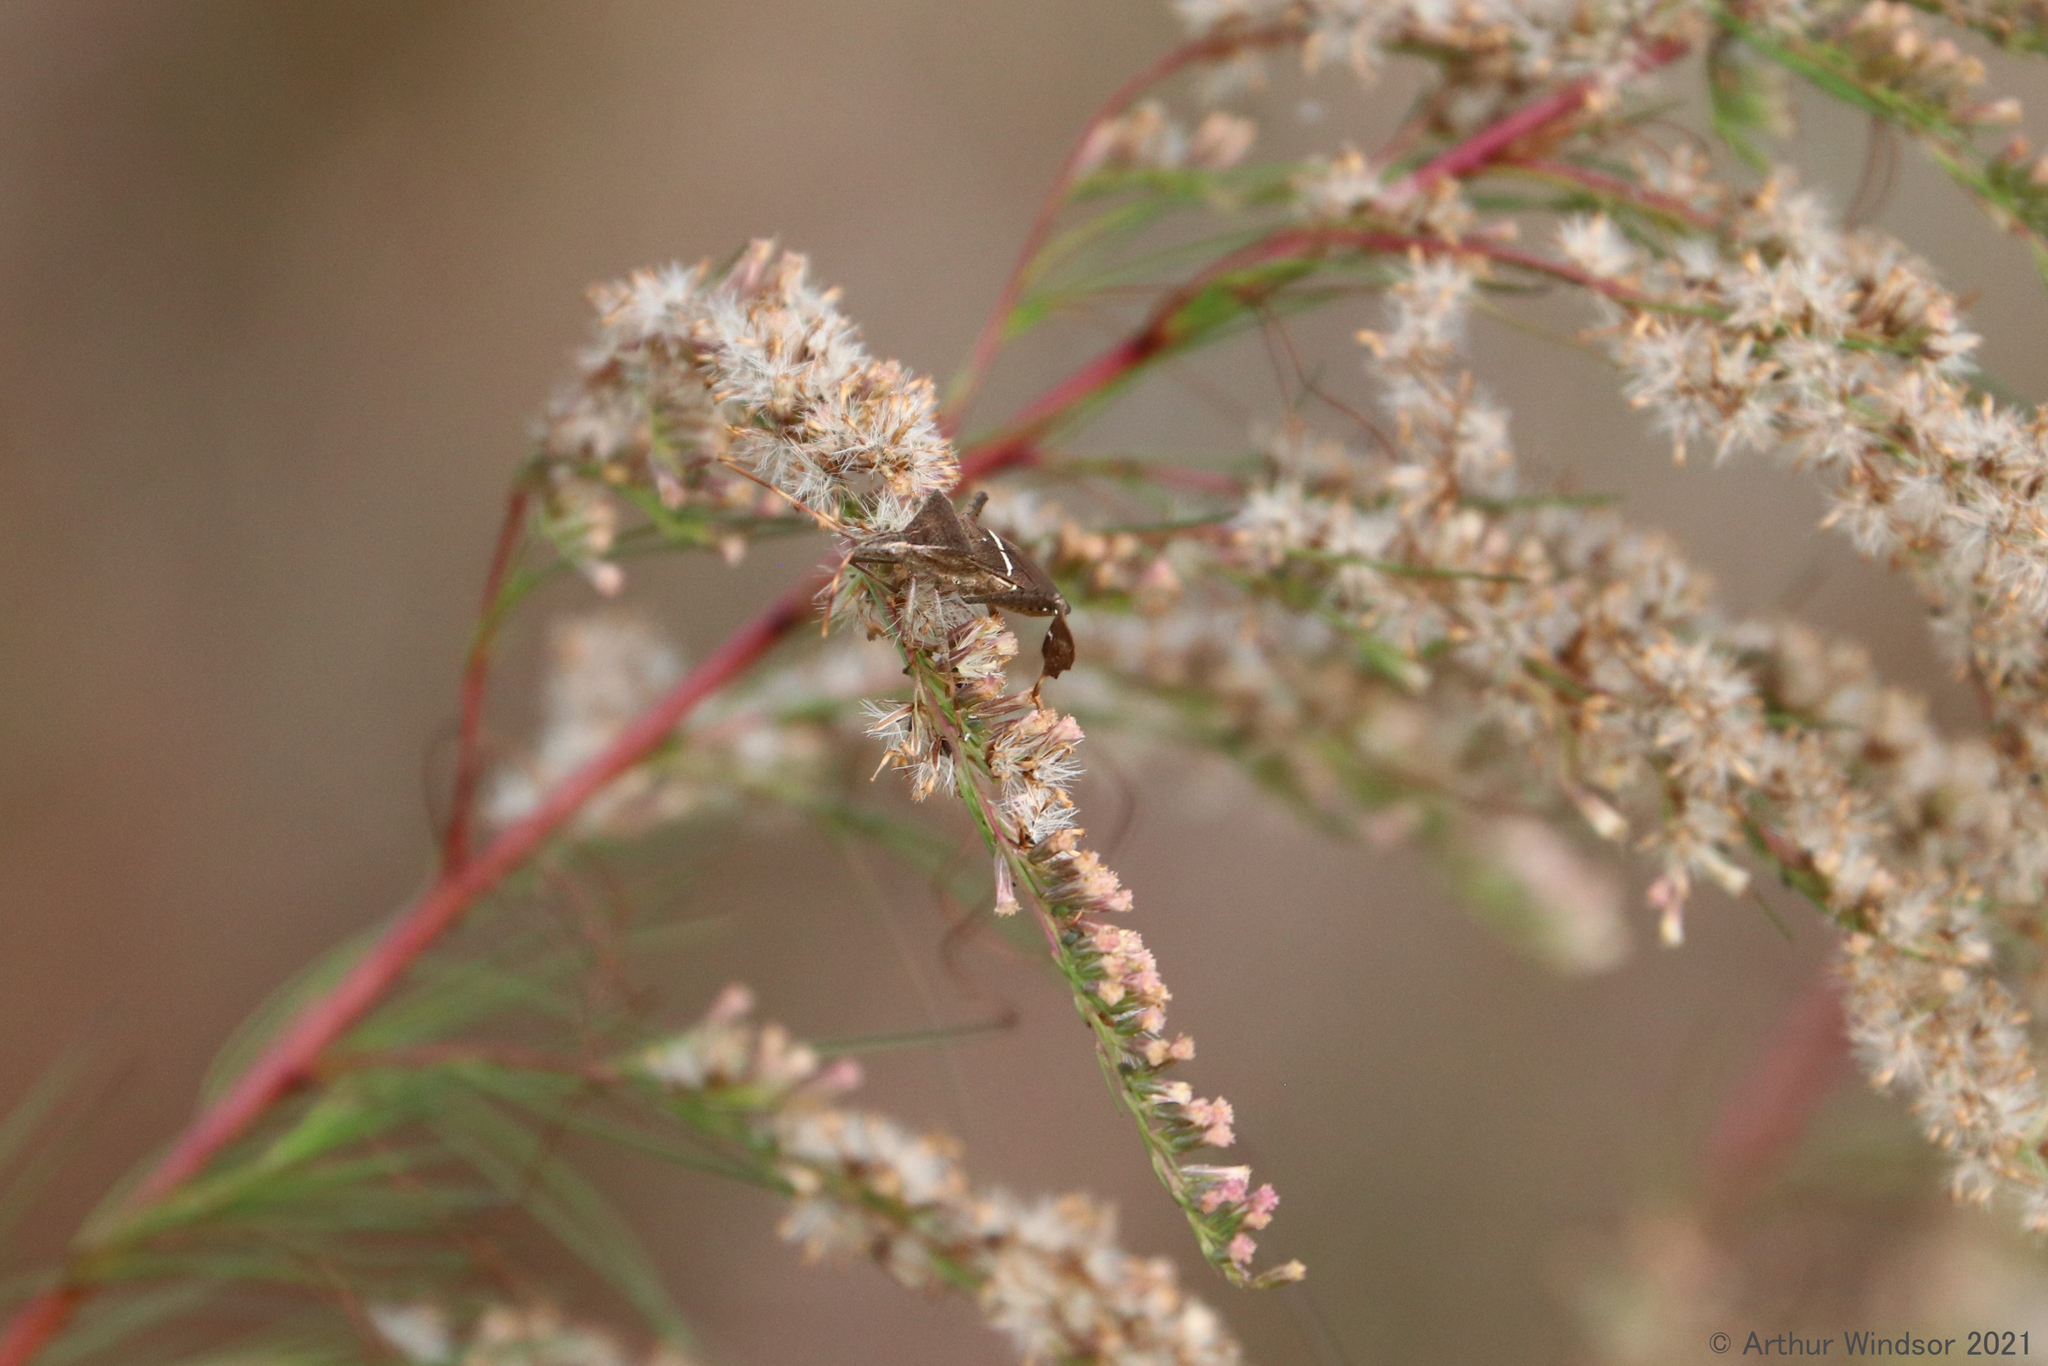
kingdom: Animalia
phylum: Arthropoda
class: Insecta
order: Hemiptera
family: Coreidae
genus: Leptoglossus
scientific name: Leptoglossus phyllopus
